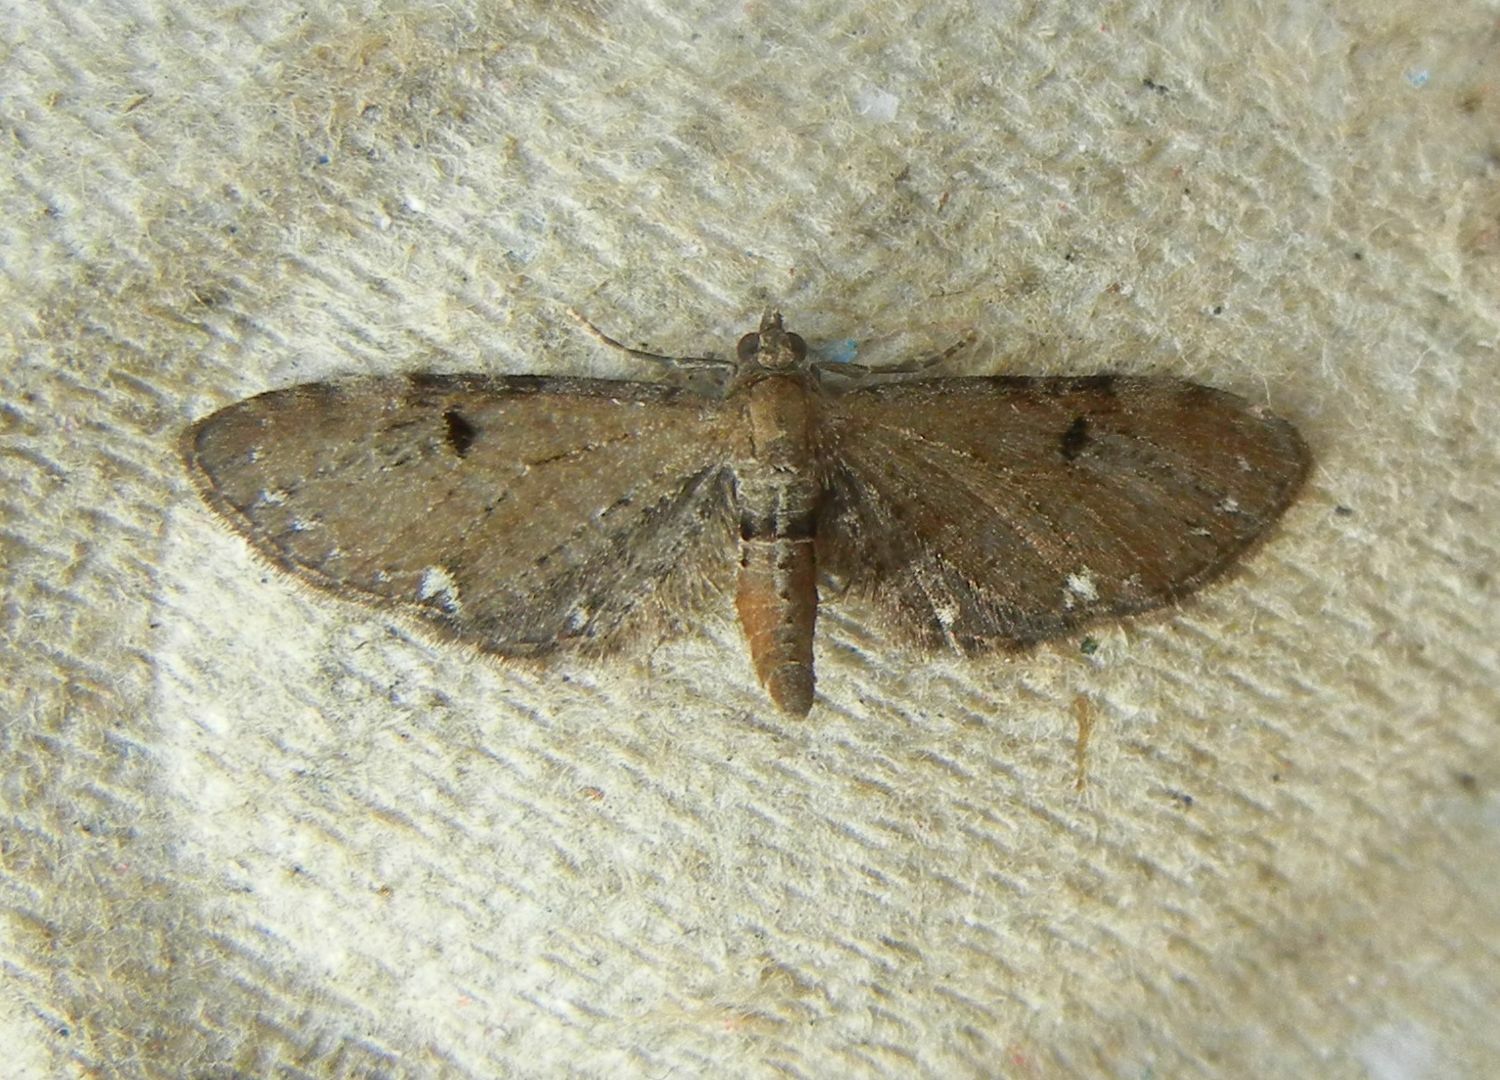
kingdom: Animalia
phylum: Arthropoda
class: Insecta
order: Lepidoptera
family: Geometridae
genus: Eupithecia
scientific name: Eupithecia assimilata
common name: Currant pug
